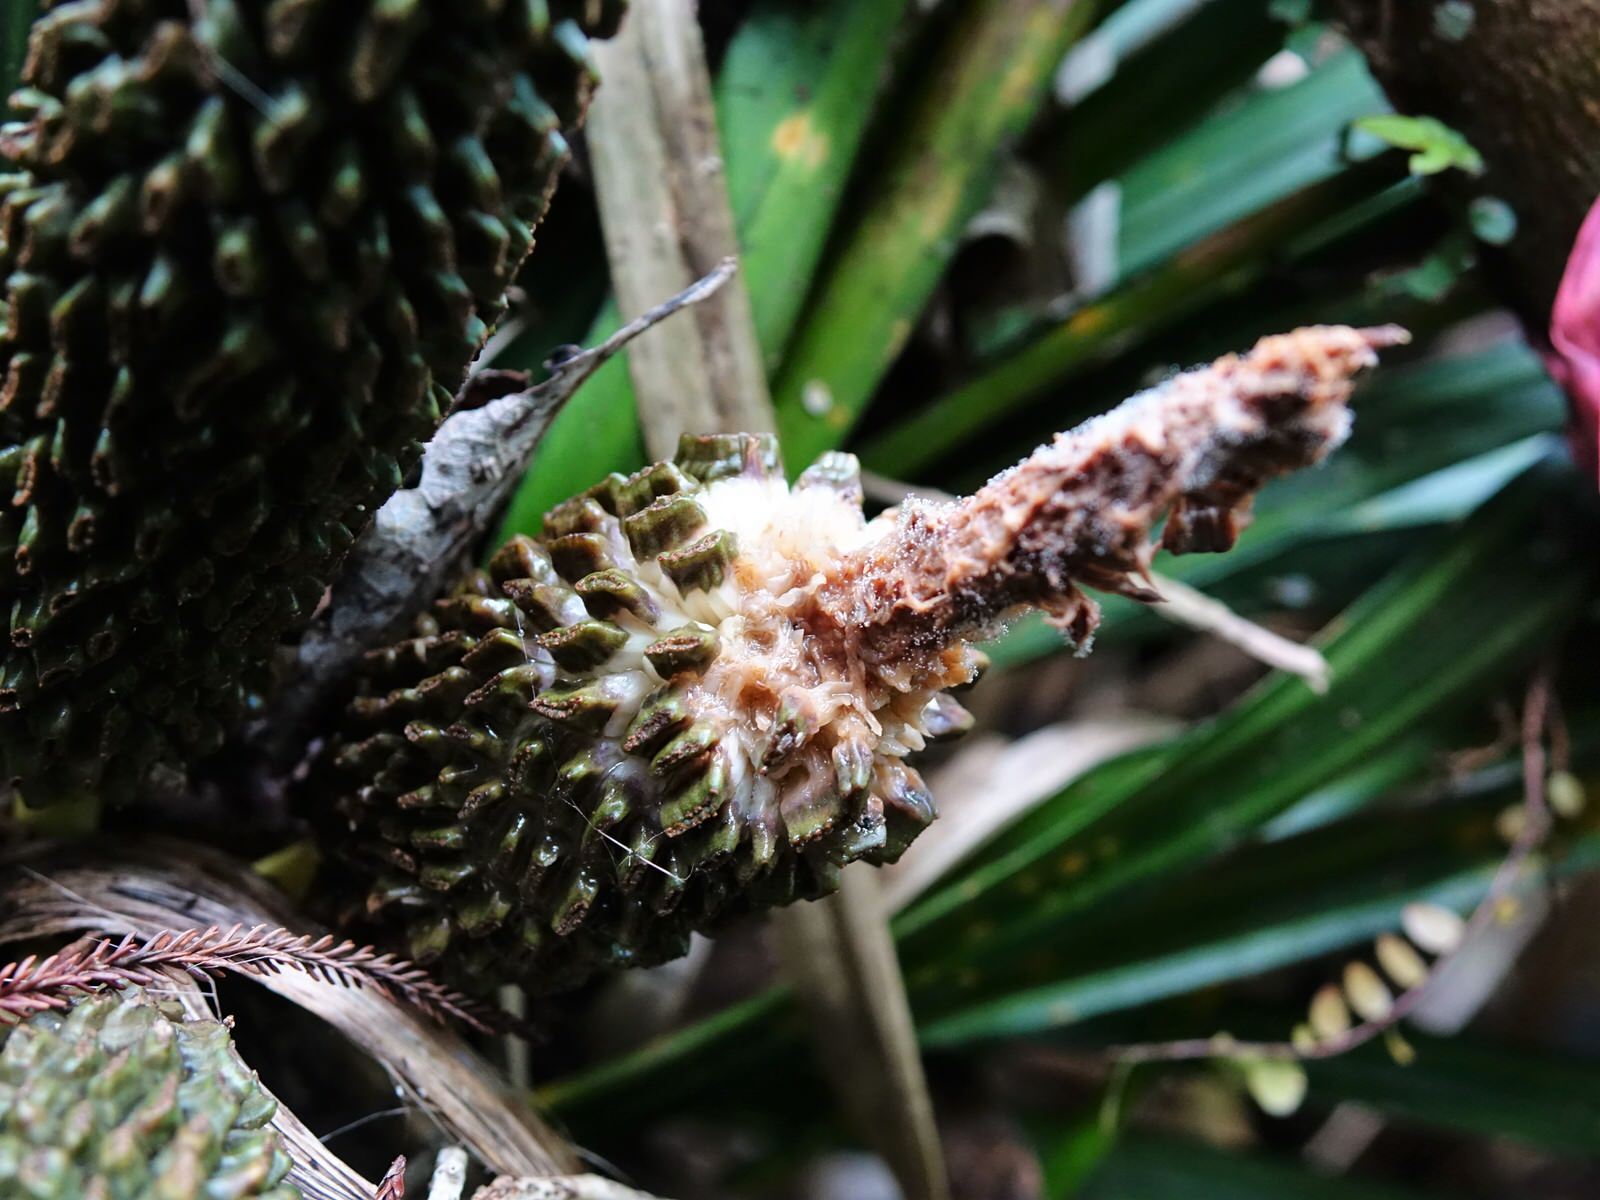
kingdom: Plantae
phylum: Tracheophyta
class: Liliopsida
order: Pandanales
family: Pandanaceae
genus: Freycinetia
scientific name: Freycinetia banksii
